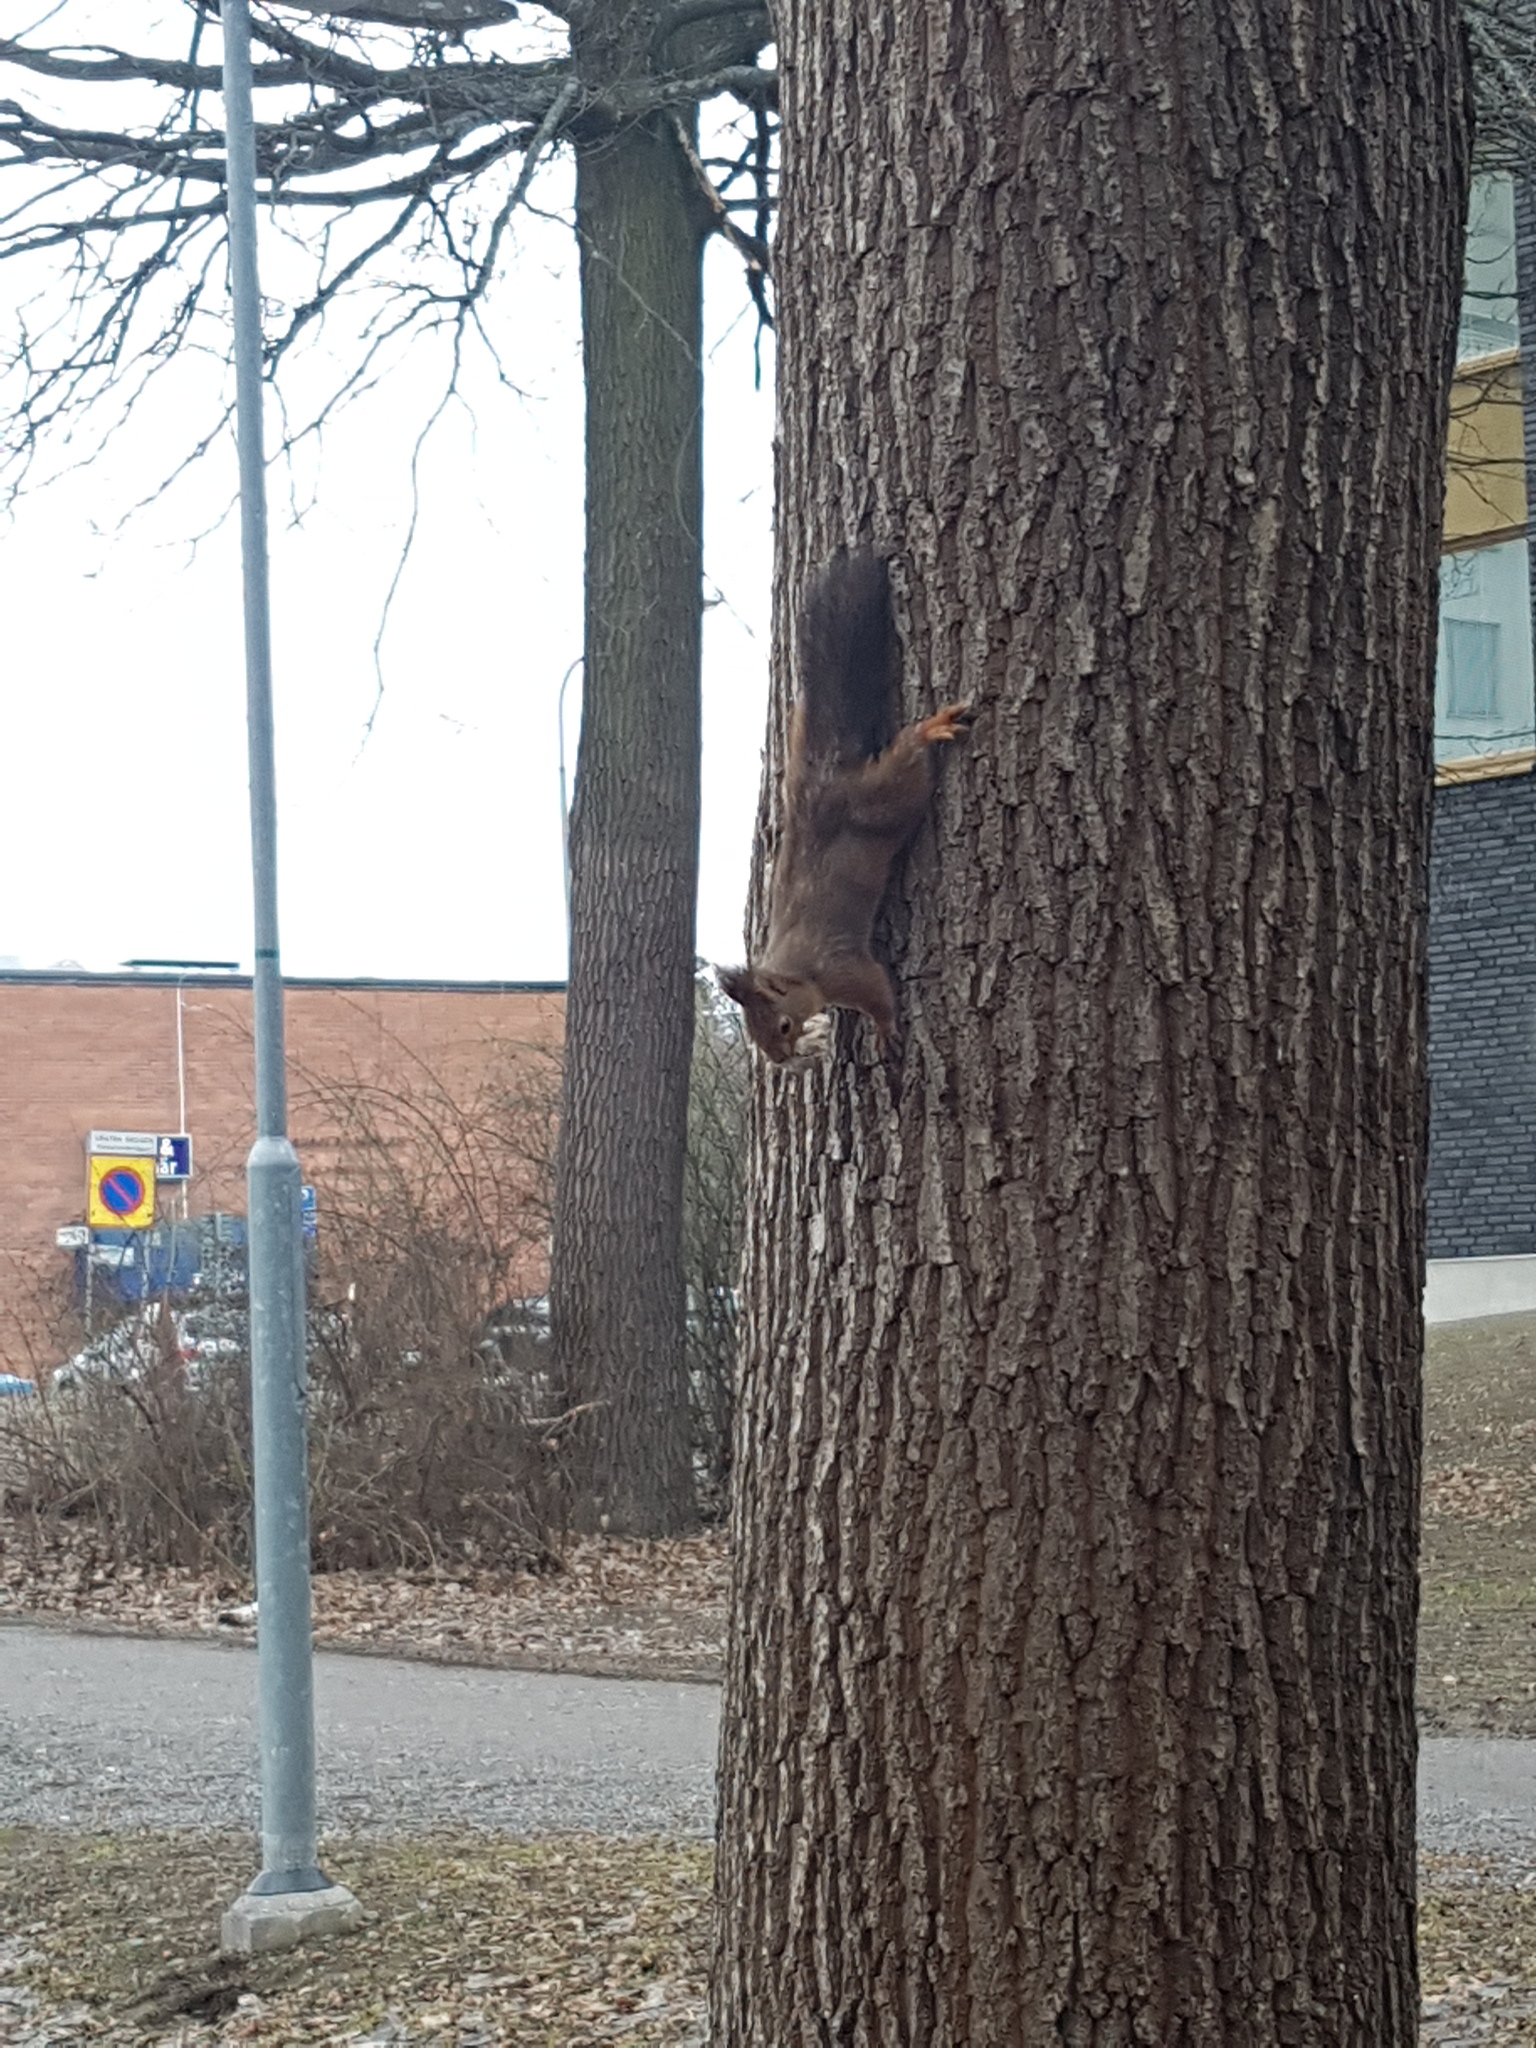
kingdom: Animalia
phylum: Chordata
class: Mammalia
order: Rodentia
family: Sciuridae
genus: Sciurus
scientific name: Sciurus vulgaris
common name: Eurasian red squirrel
